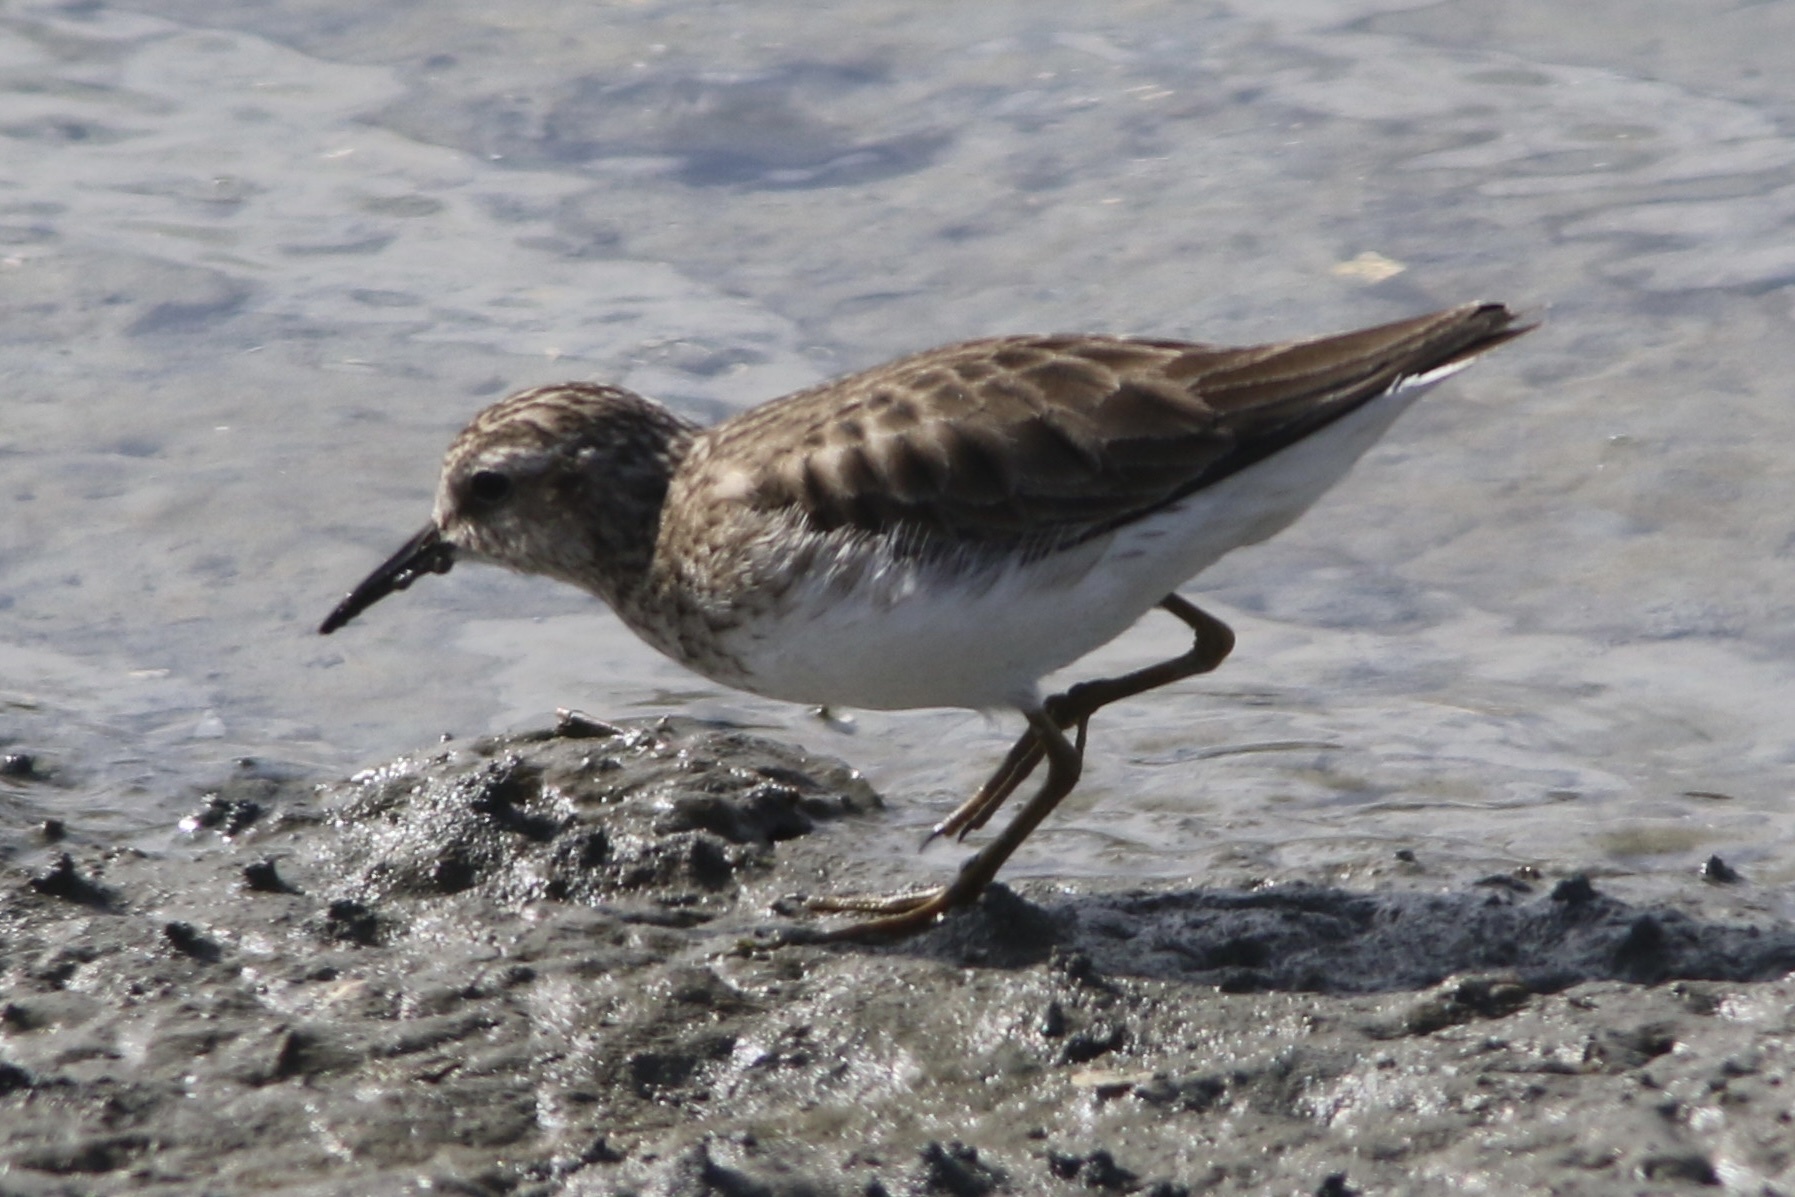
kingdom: Animalia
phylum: Chordata
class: Aves
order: Charadriiformes
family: Scolopacidae
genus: Calidris
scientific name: Calidris minutilla
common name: Least sandpiper
